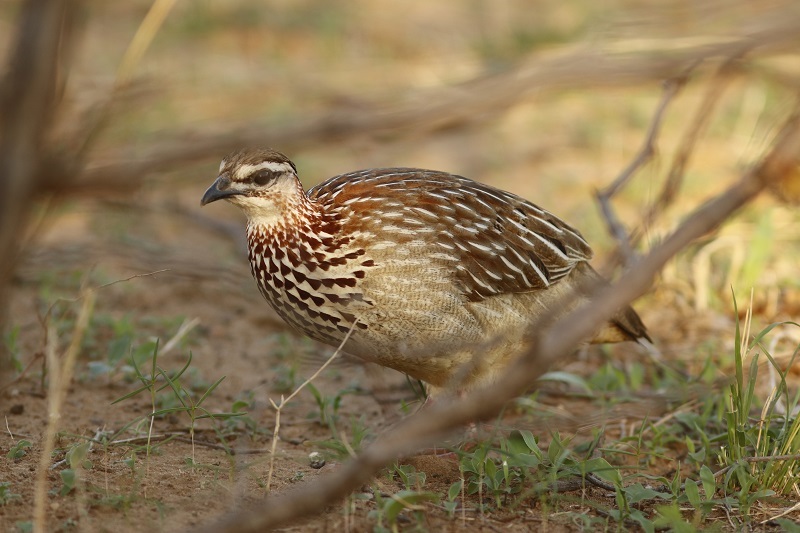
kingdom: Animalia
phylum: Chordata
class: Aves
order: Galliformes
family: Phasianidae
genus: Ortygornis
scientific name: Ortygornis sephaena
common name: Crested francolin
